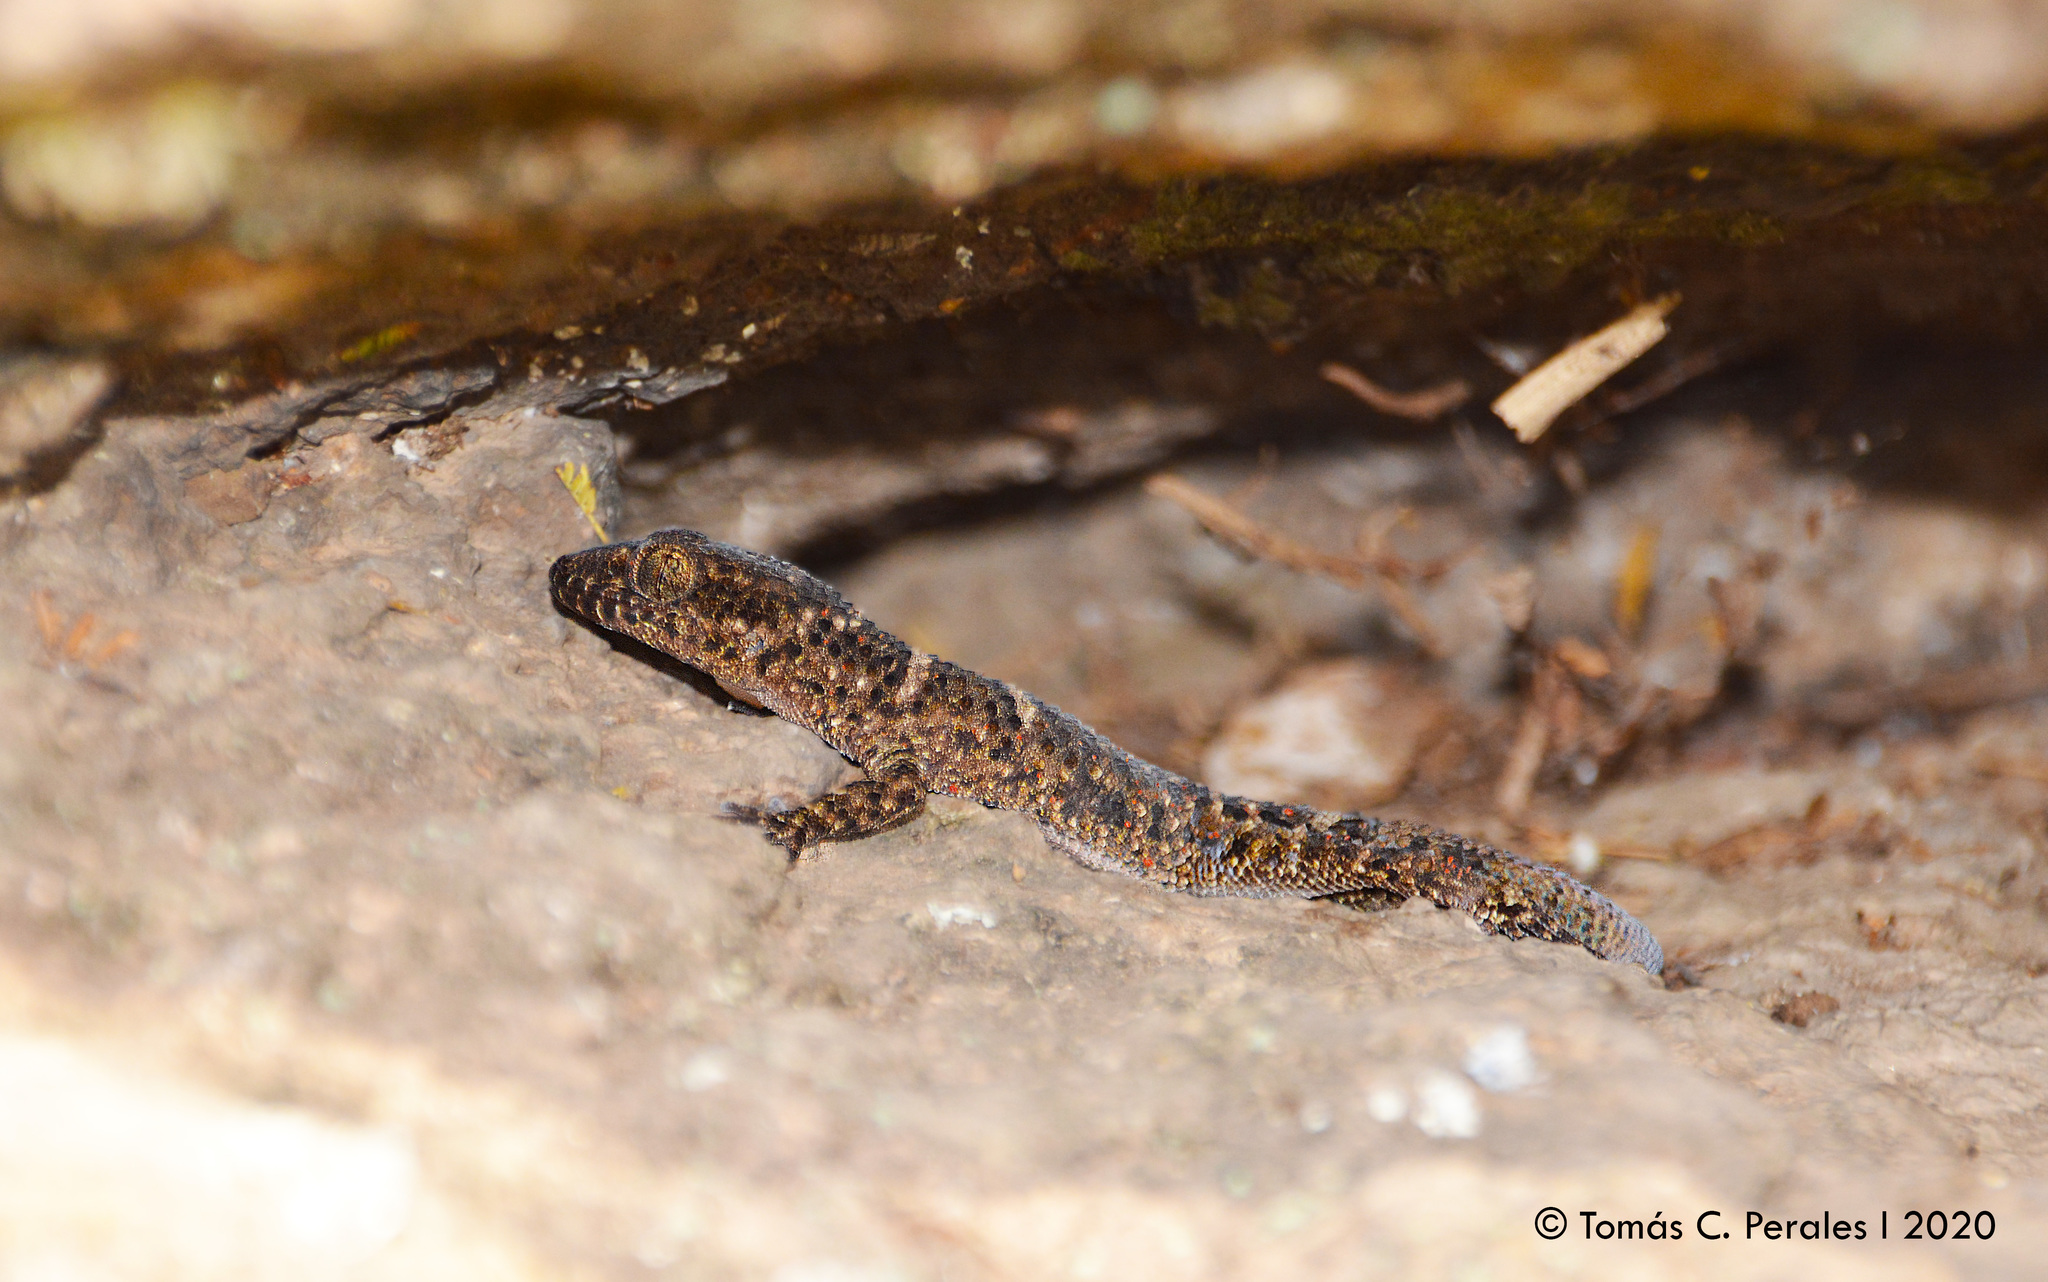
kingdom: Animalia
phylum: Chordata
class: Squamata
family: Phyllodactylidae
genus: Homonota
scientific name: Homonota horrida
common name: South american marked gecko
